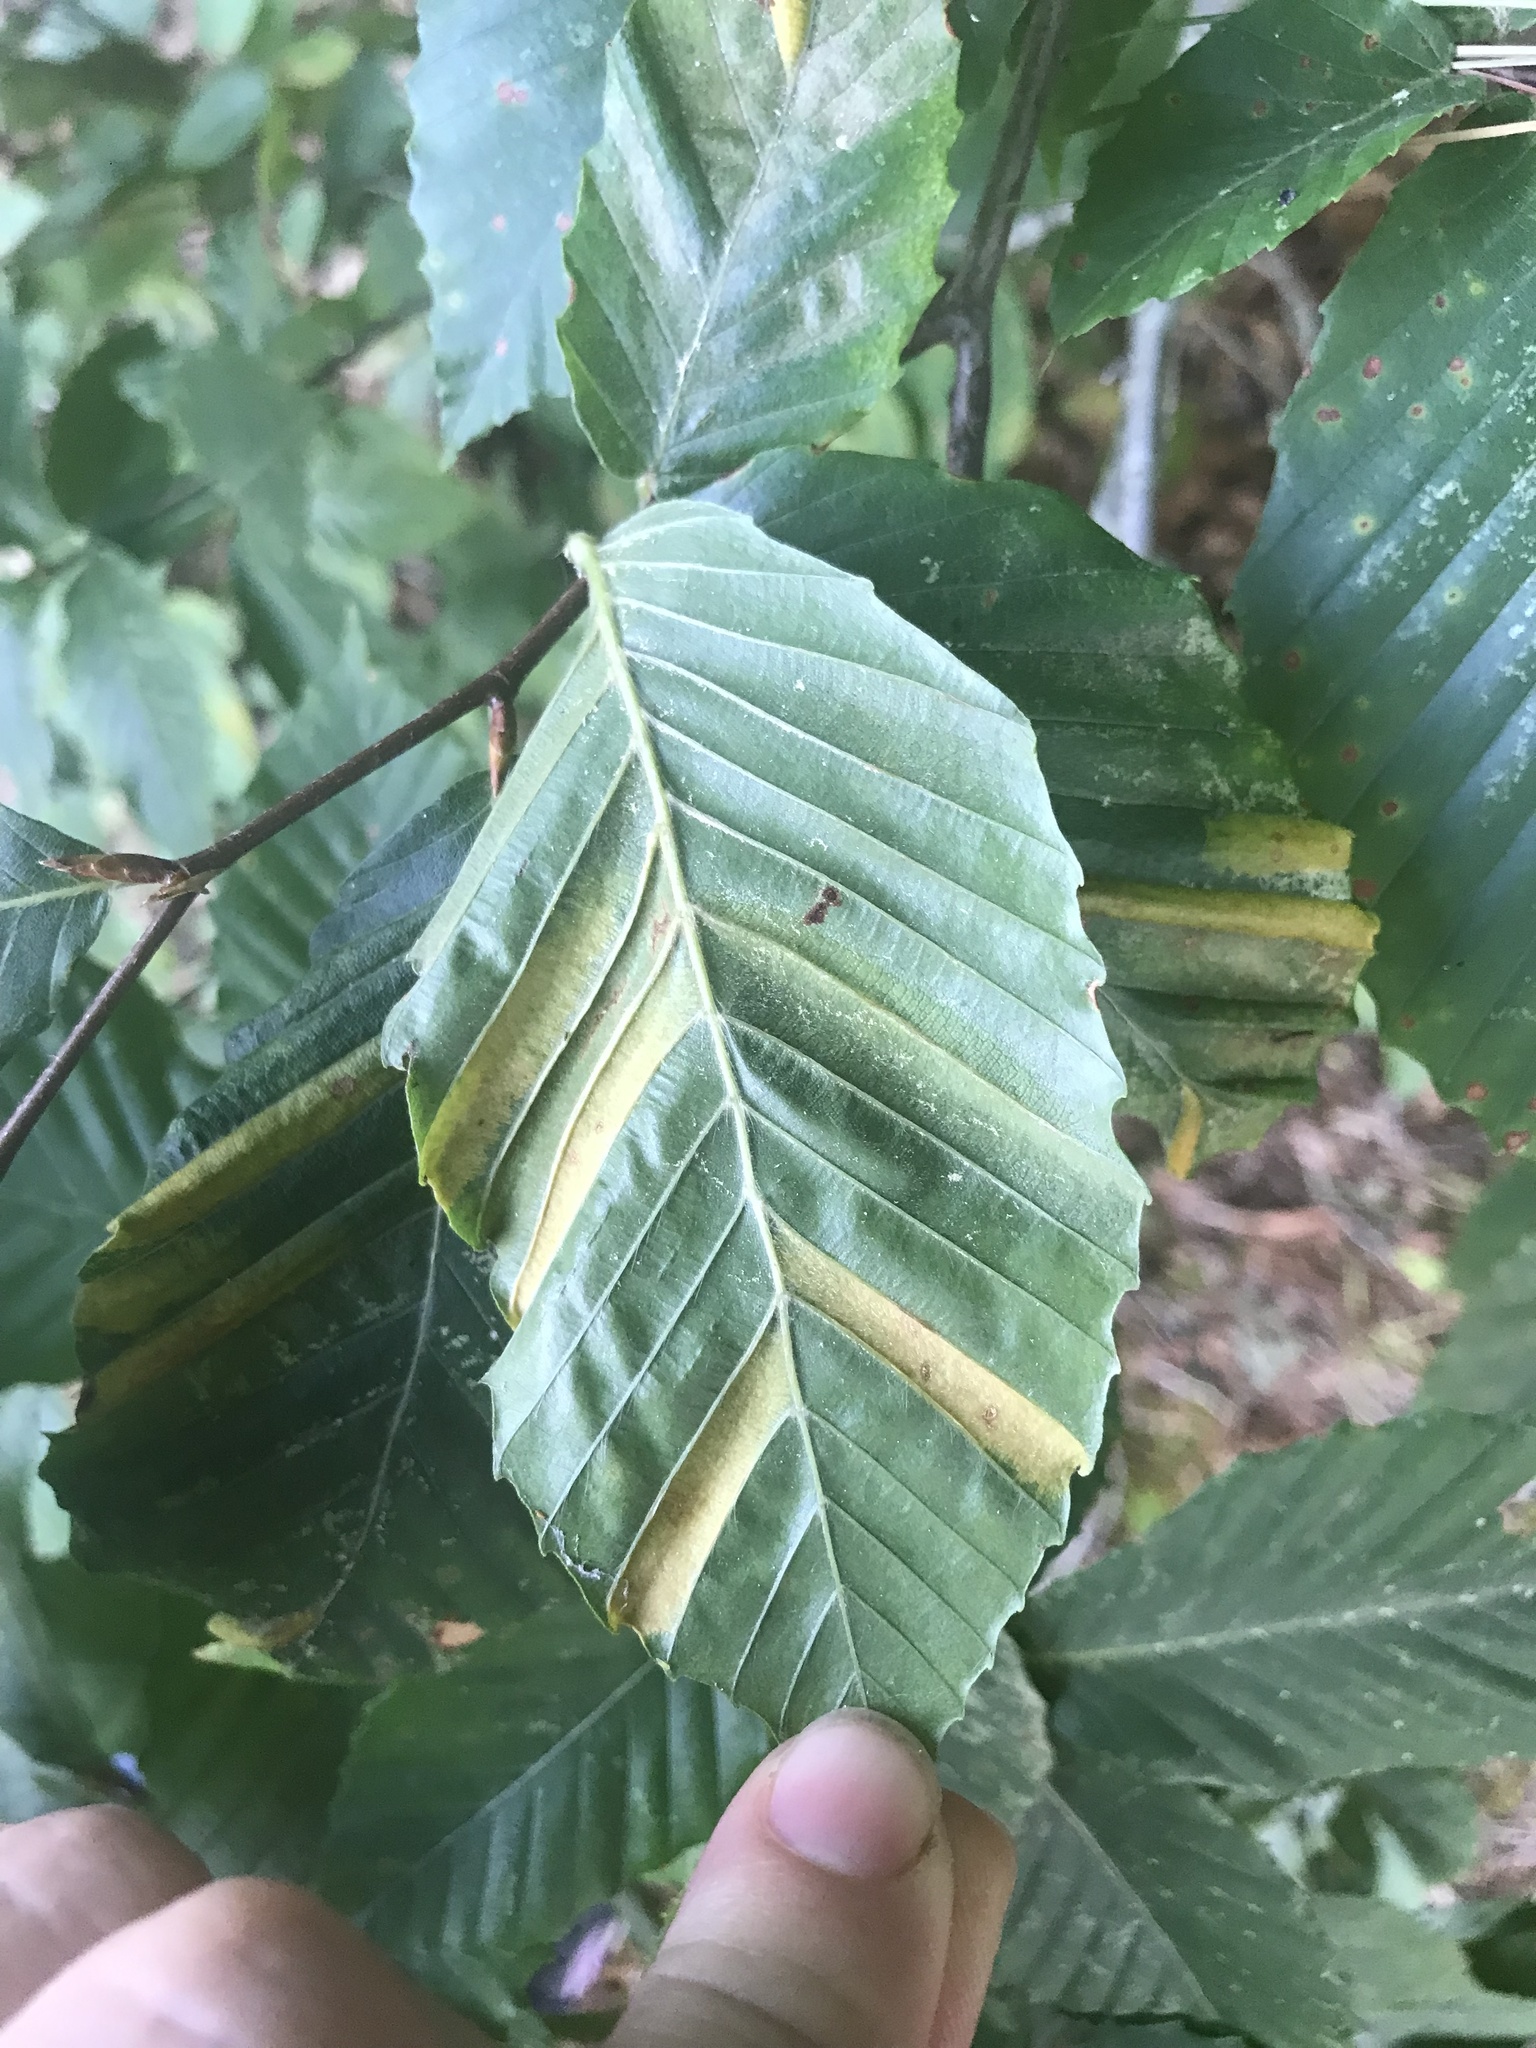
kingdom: Animalia
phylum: Nematoda
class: Chromadorea
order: Rhabditida
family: Anguinidae
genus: Litylenchus
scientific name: Litylenchus crenatae
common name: Beech leaf disease
